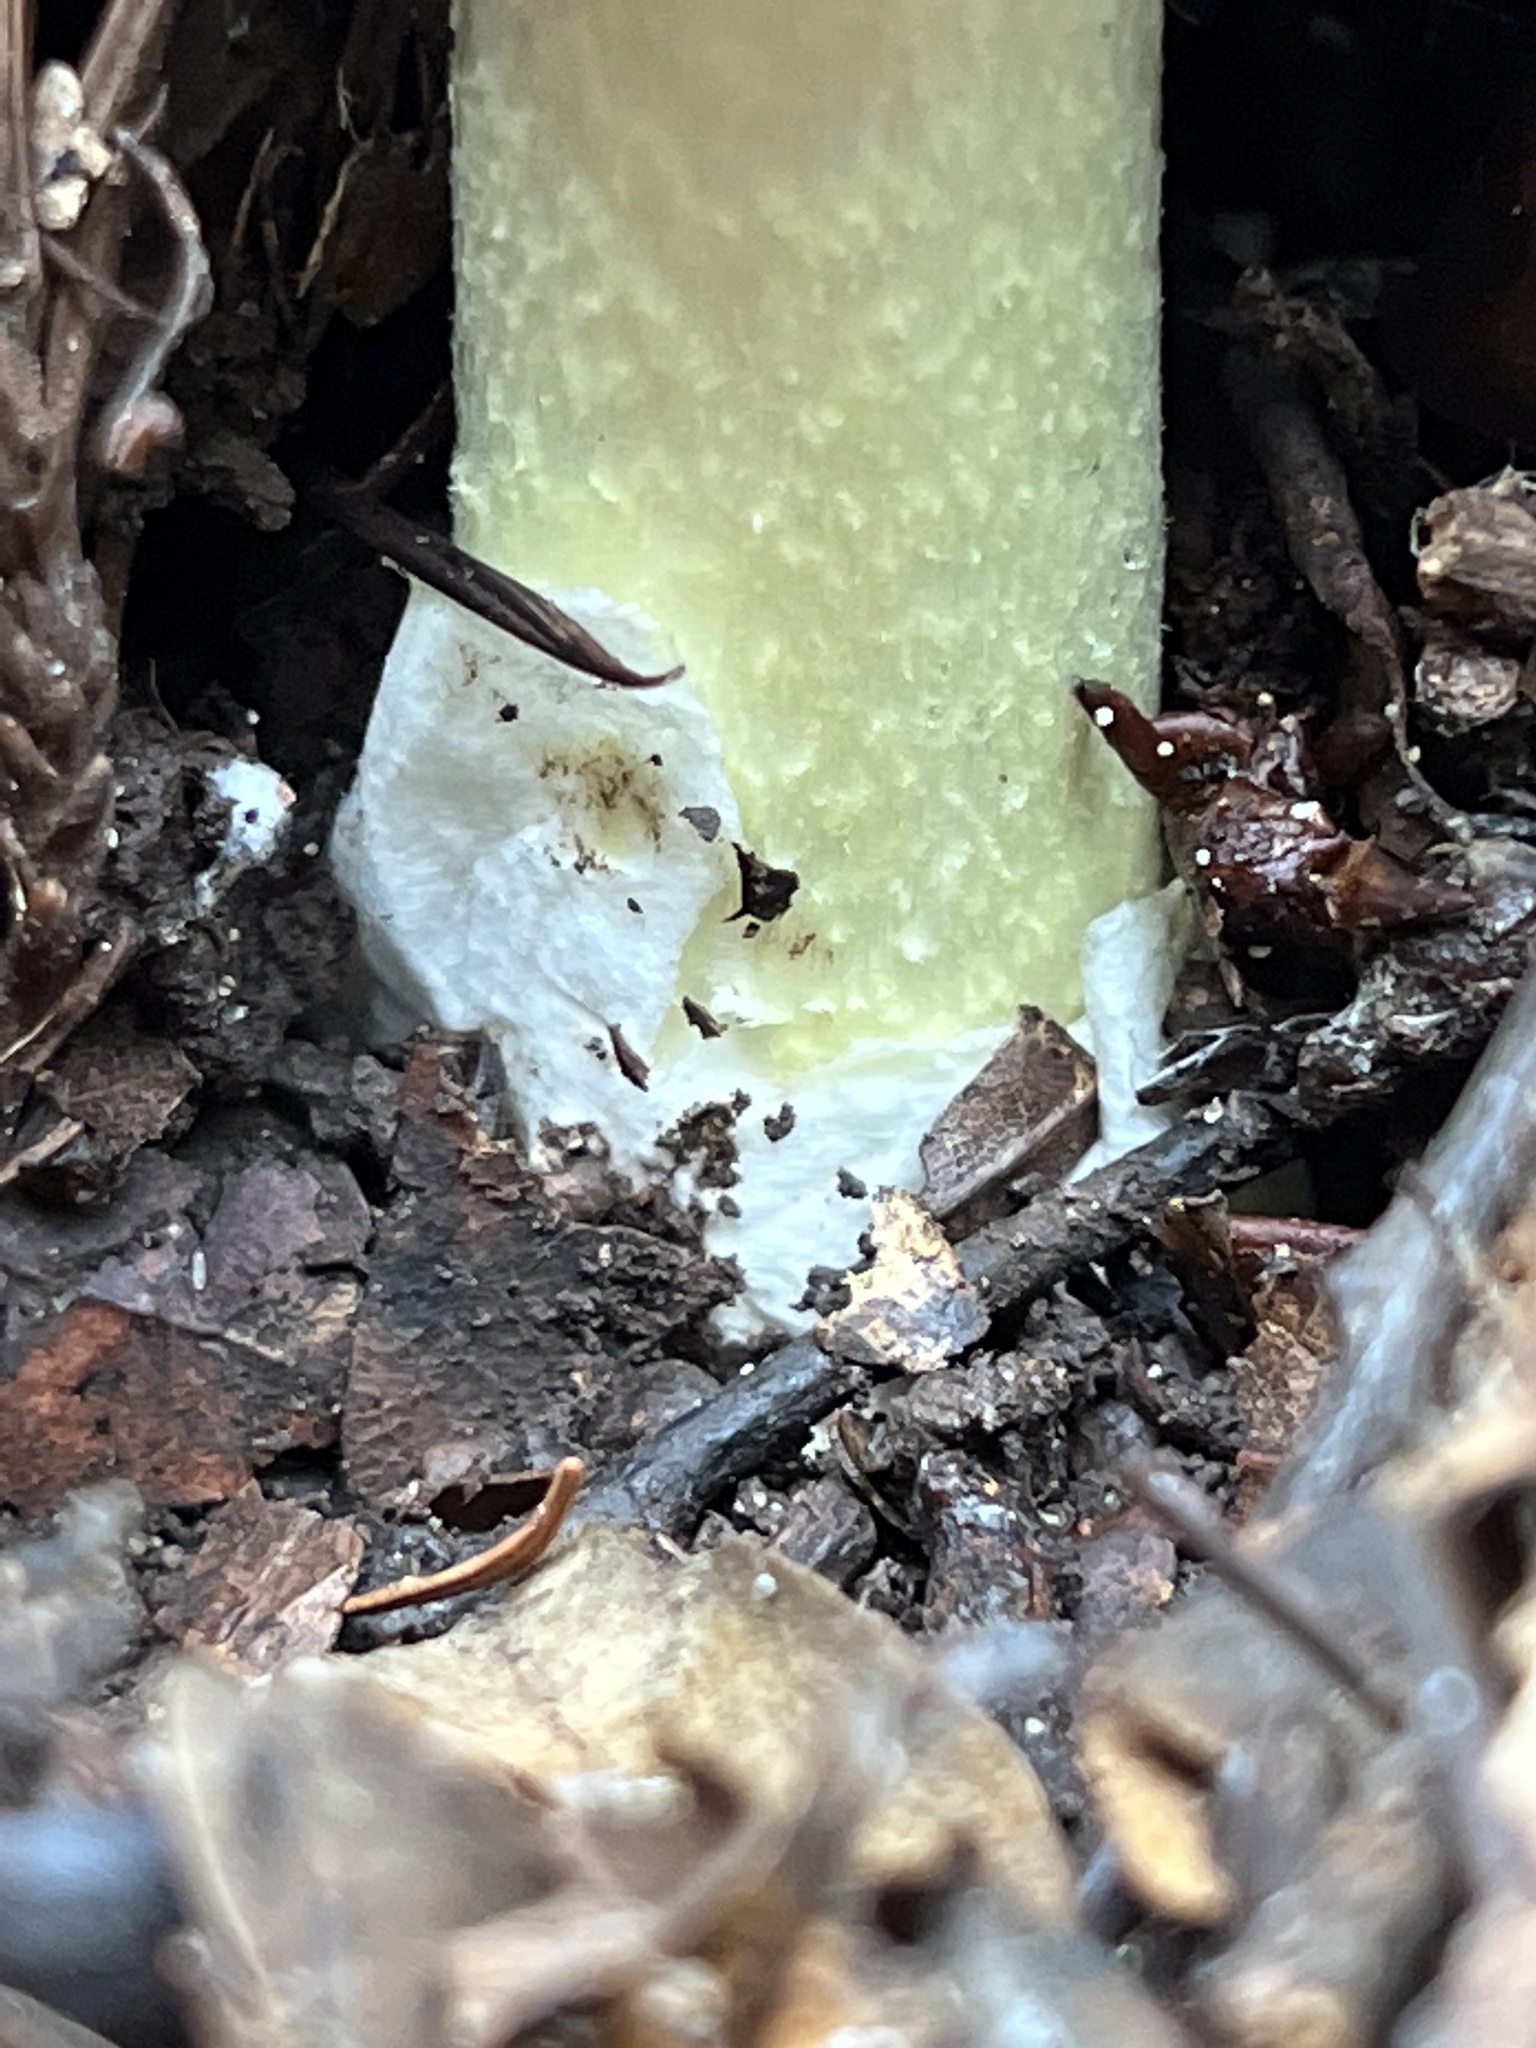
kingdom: Fungi
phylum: Basidiomycota
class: Agaricomycetes
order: Agaricales
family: Amanitaceae
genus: Amanita
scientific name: Amanita phalloides
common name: Death cap
